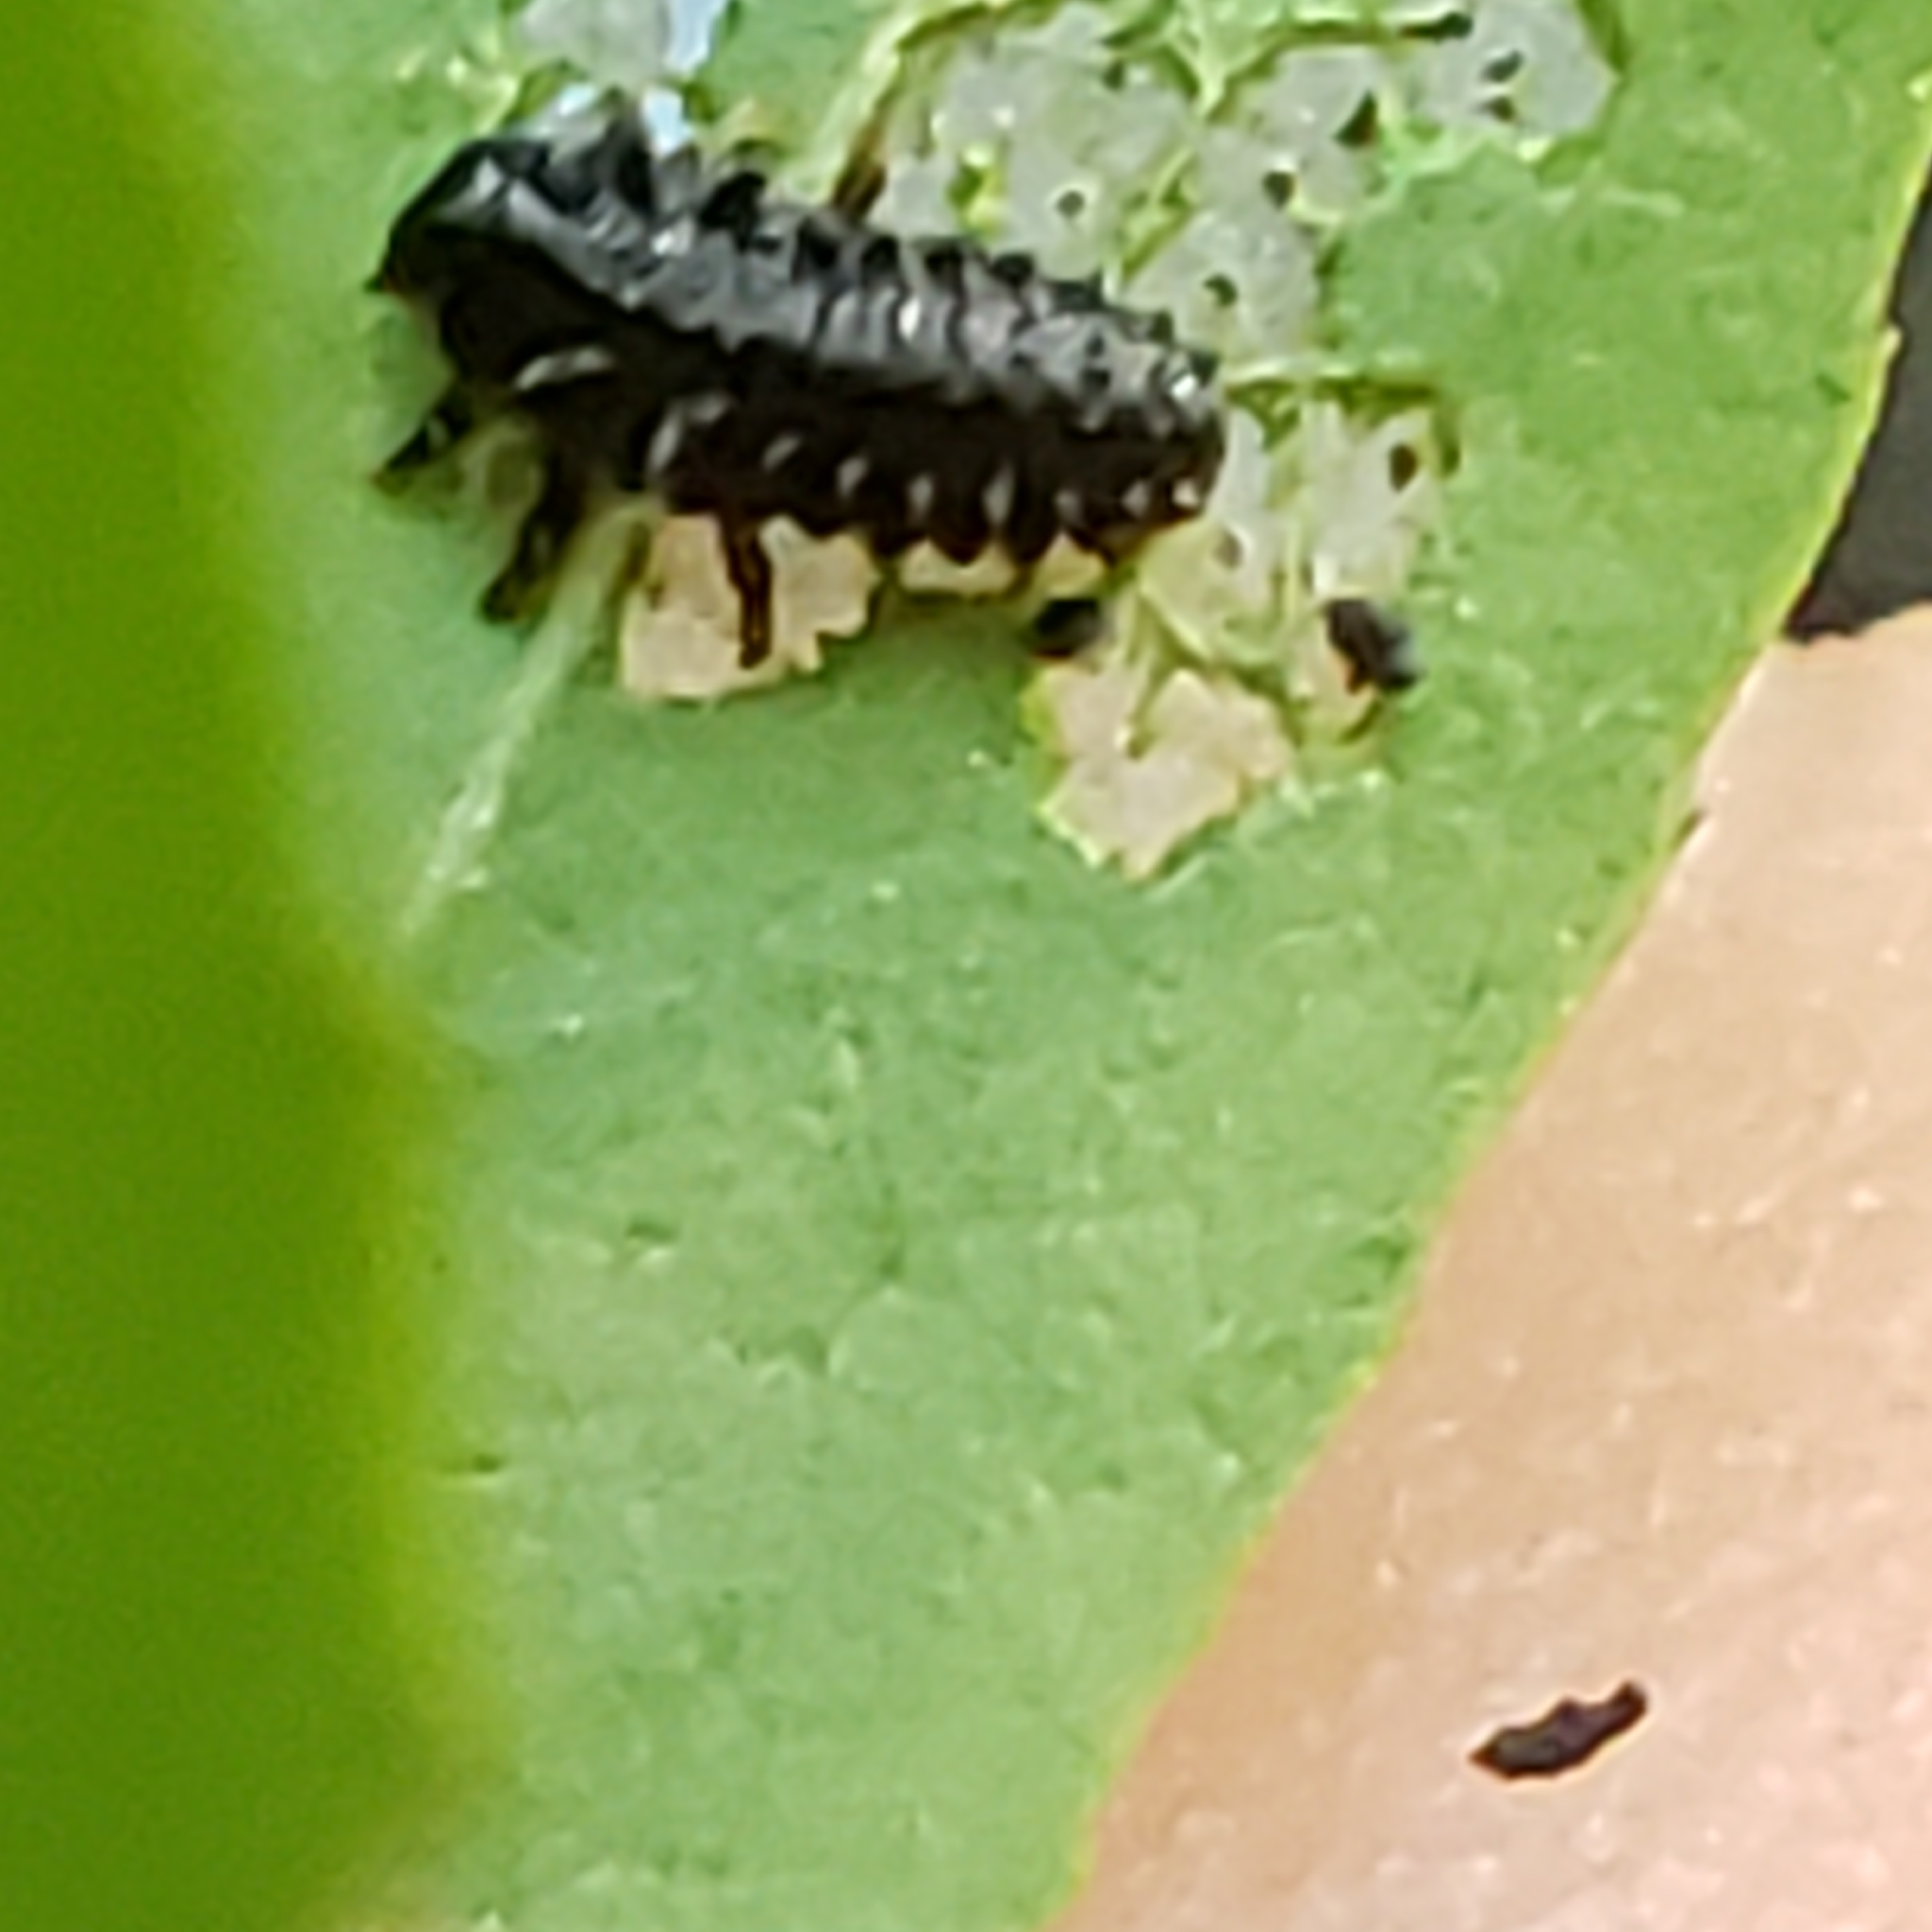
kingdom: Animalia
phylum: Arthropoda
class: Insecta
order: Coleoptera
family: Chrysomelidae
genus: Plagiodera
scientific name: Plagiodera versicolora
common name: Imported willow leaf beetle
